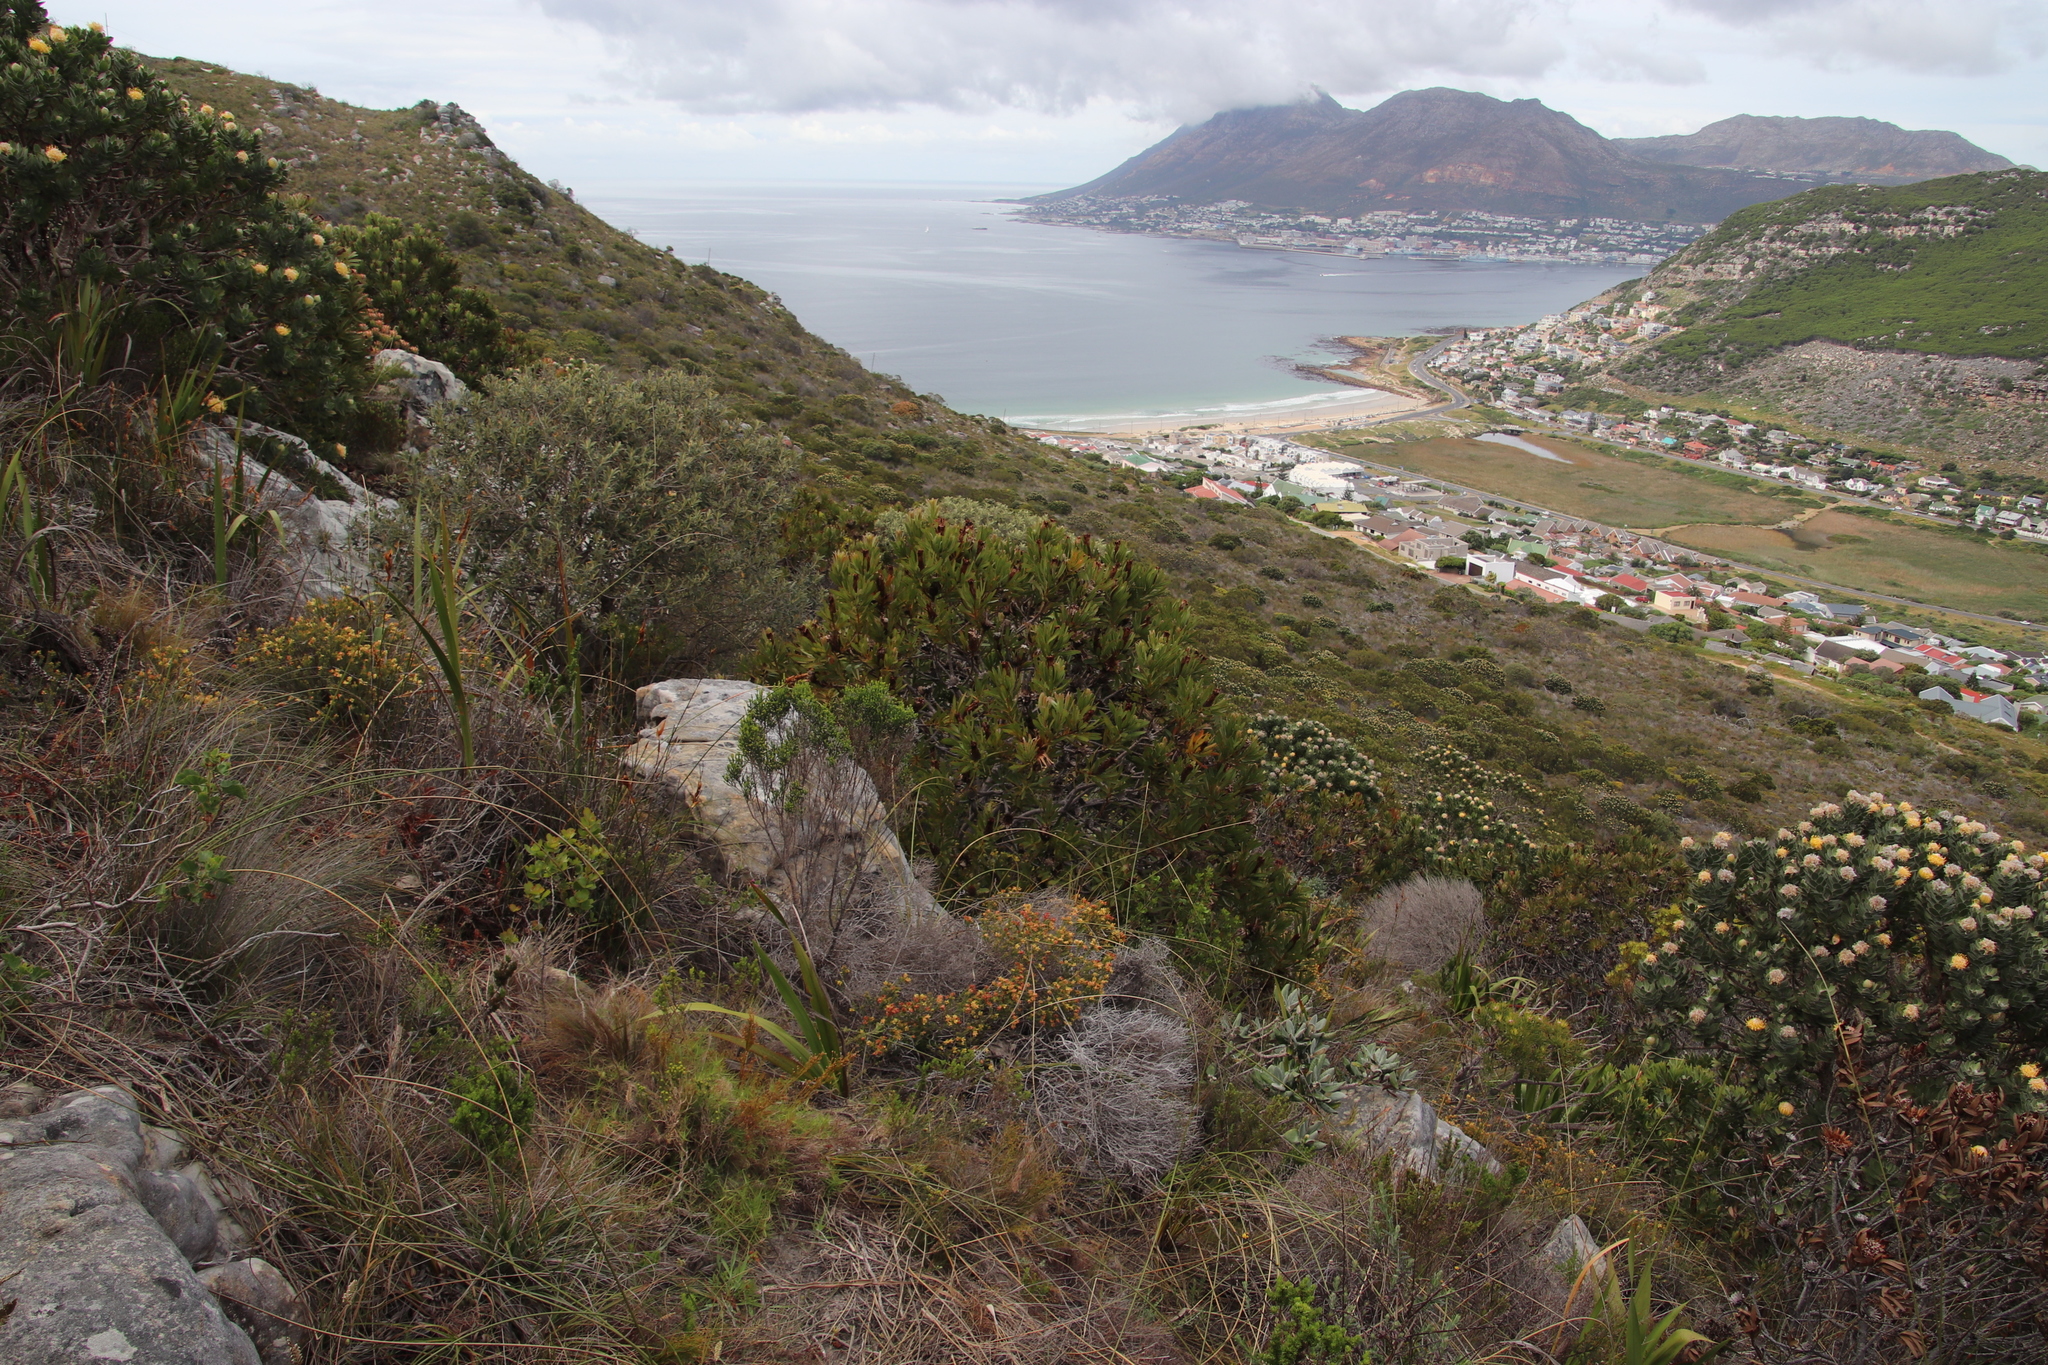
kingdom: Plantae
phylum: Tracheophyta
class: Magnoliopsida
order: Proteales
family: Proteaceae
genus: Protea
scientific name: Protea lepidocarpodendron
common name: Black-bearded protea
